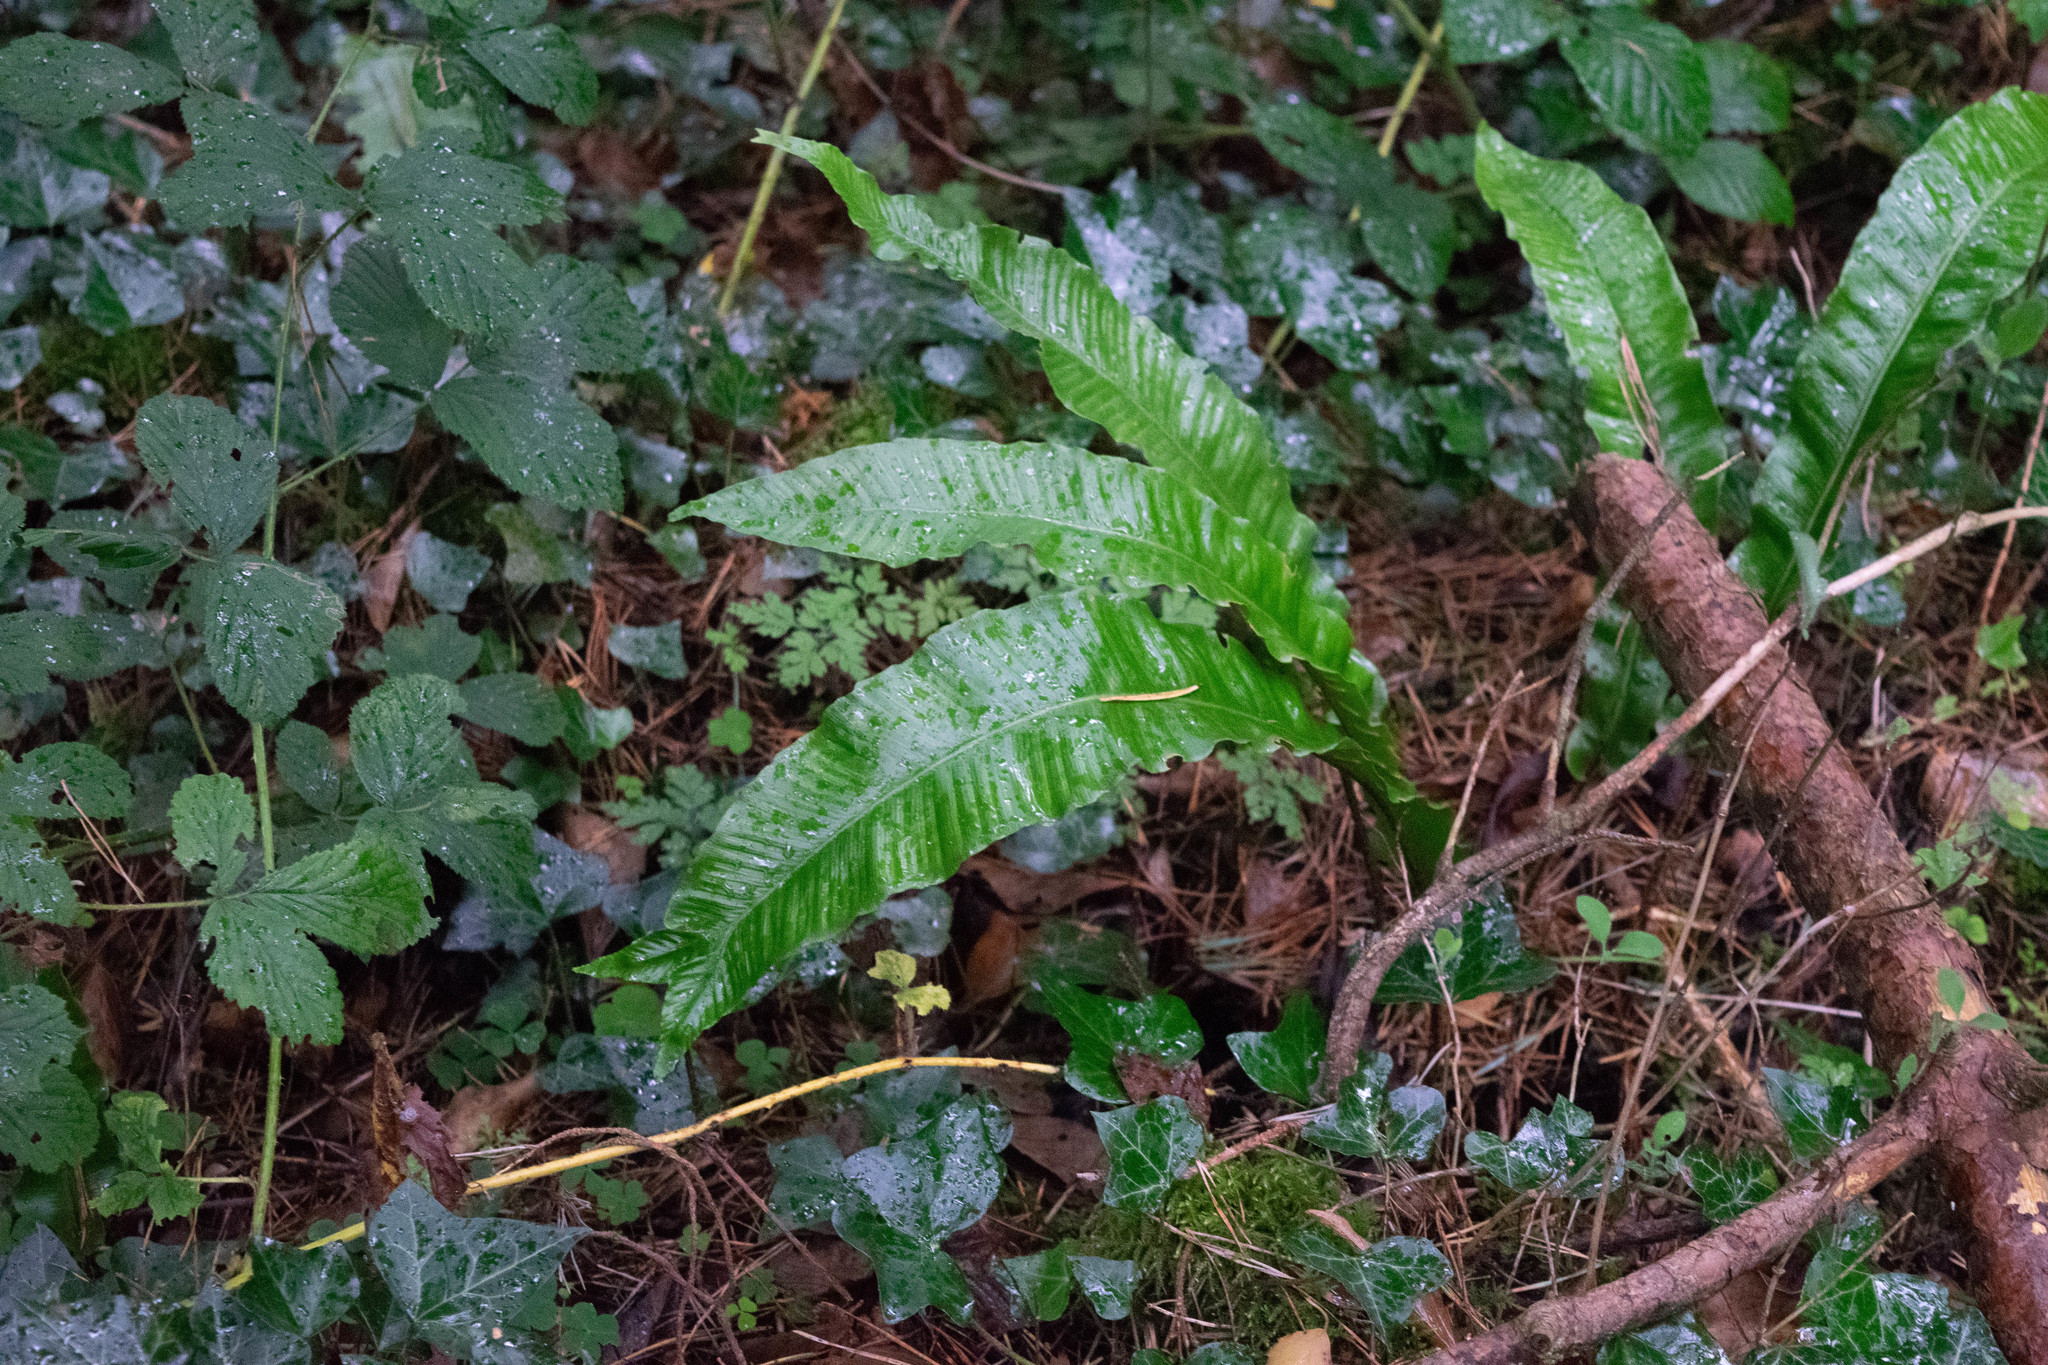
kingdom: Plantae
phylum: Tracheophyta
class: Polypodiopsida
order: Polypodiales
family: Aspleniaceae
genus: Asplenium
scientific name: Asplenium scolopendrium
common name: Hart's-tongue fern
